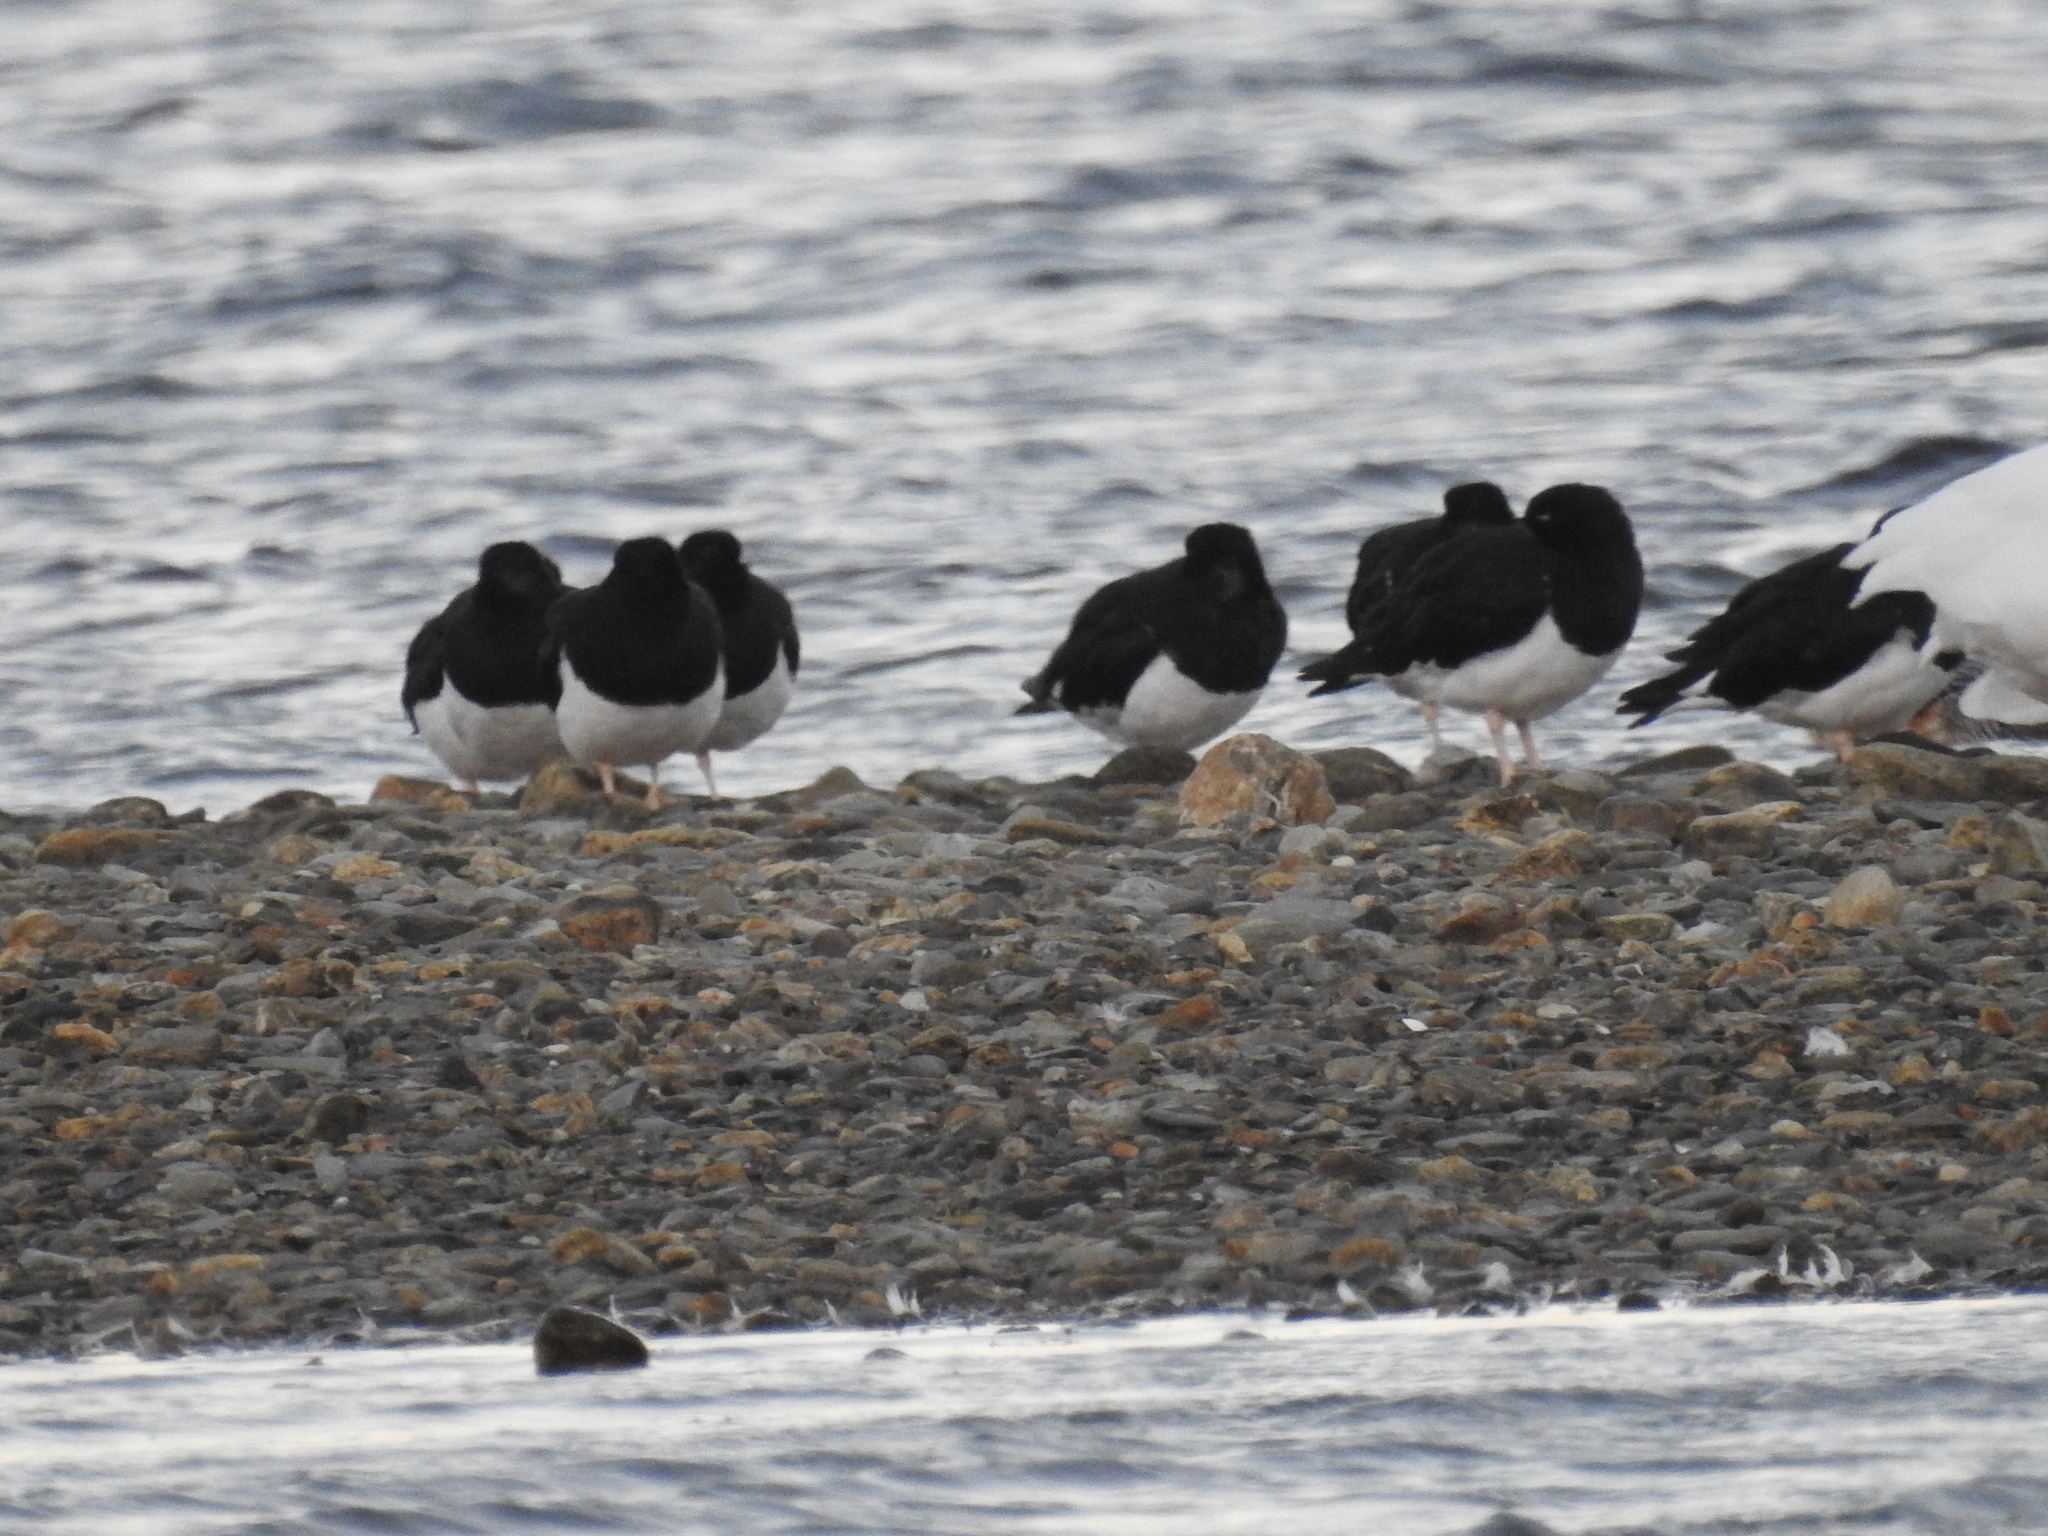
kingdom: Animalia
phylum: Chordata
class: Aves
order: Charadriiformes
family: Haematopodidae
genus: Haematopus
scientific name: Haematopus leucopodus
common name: Magellanic oystercatcher
